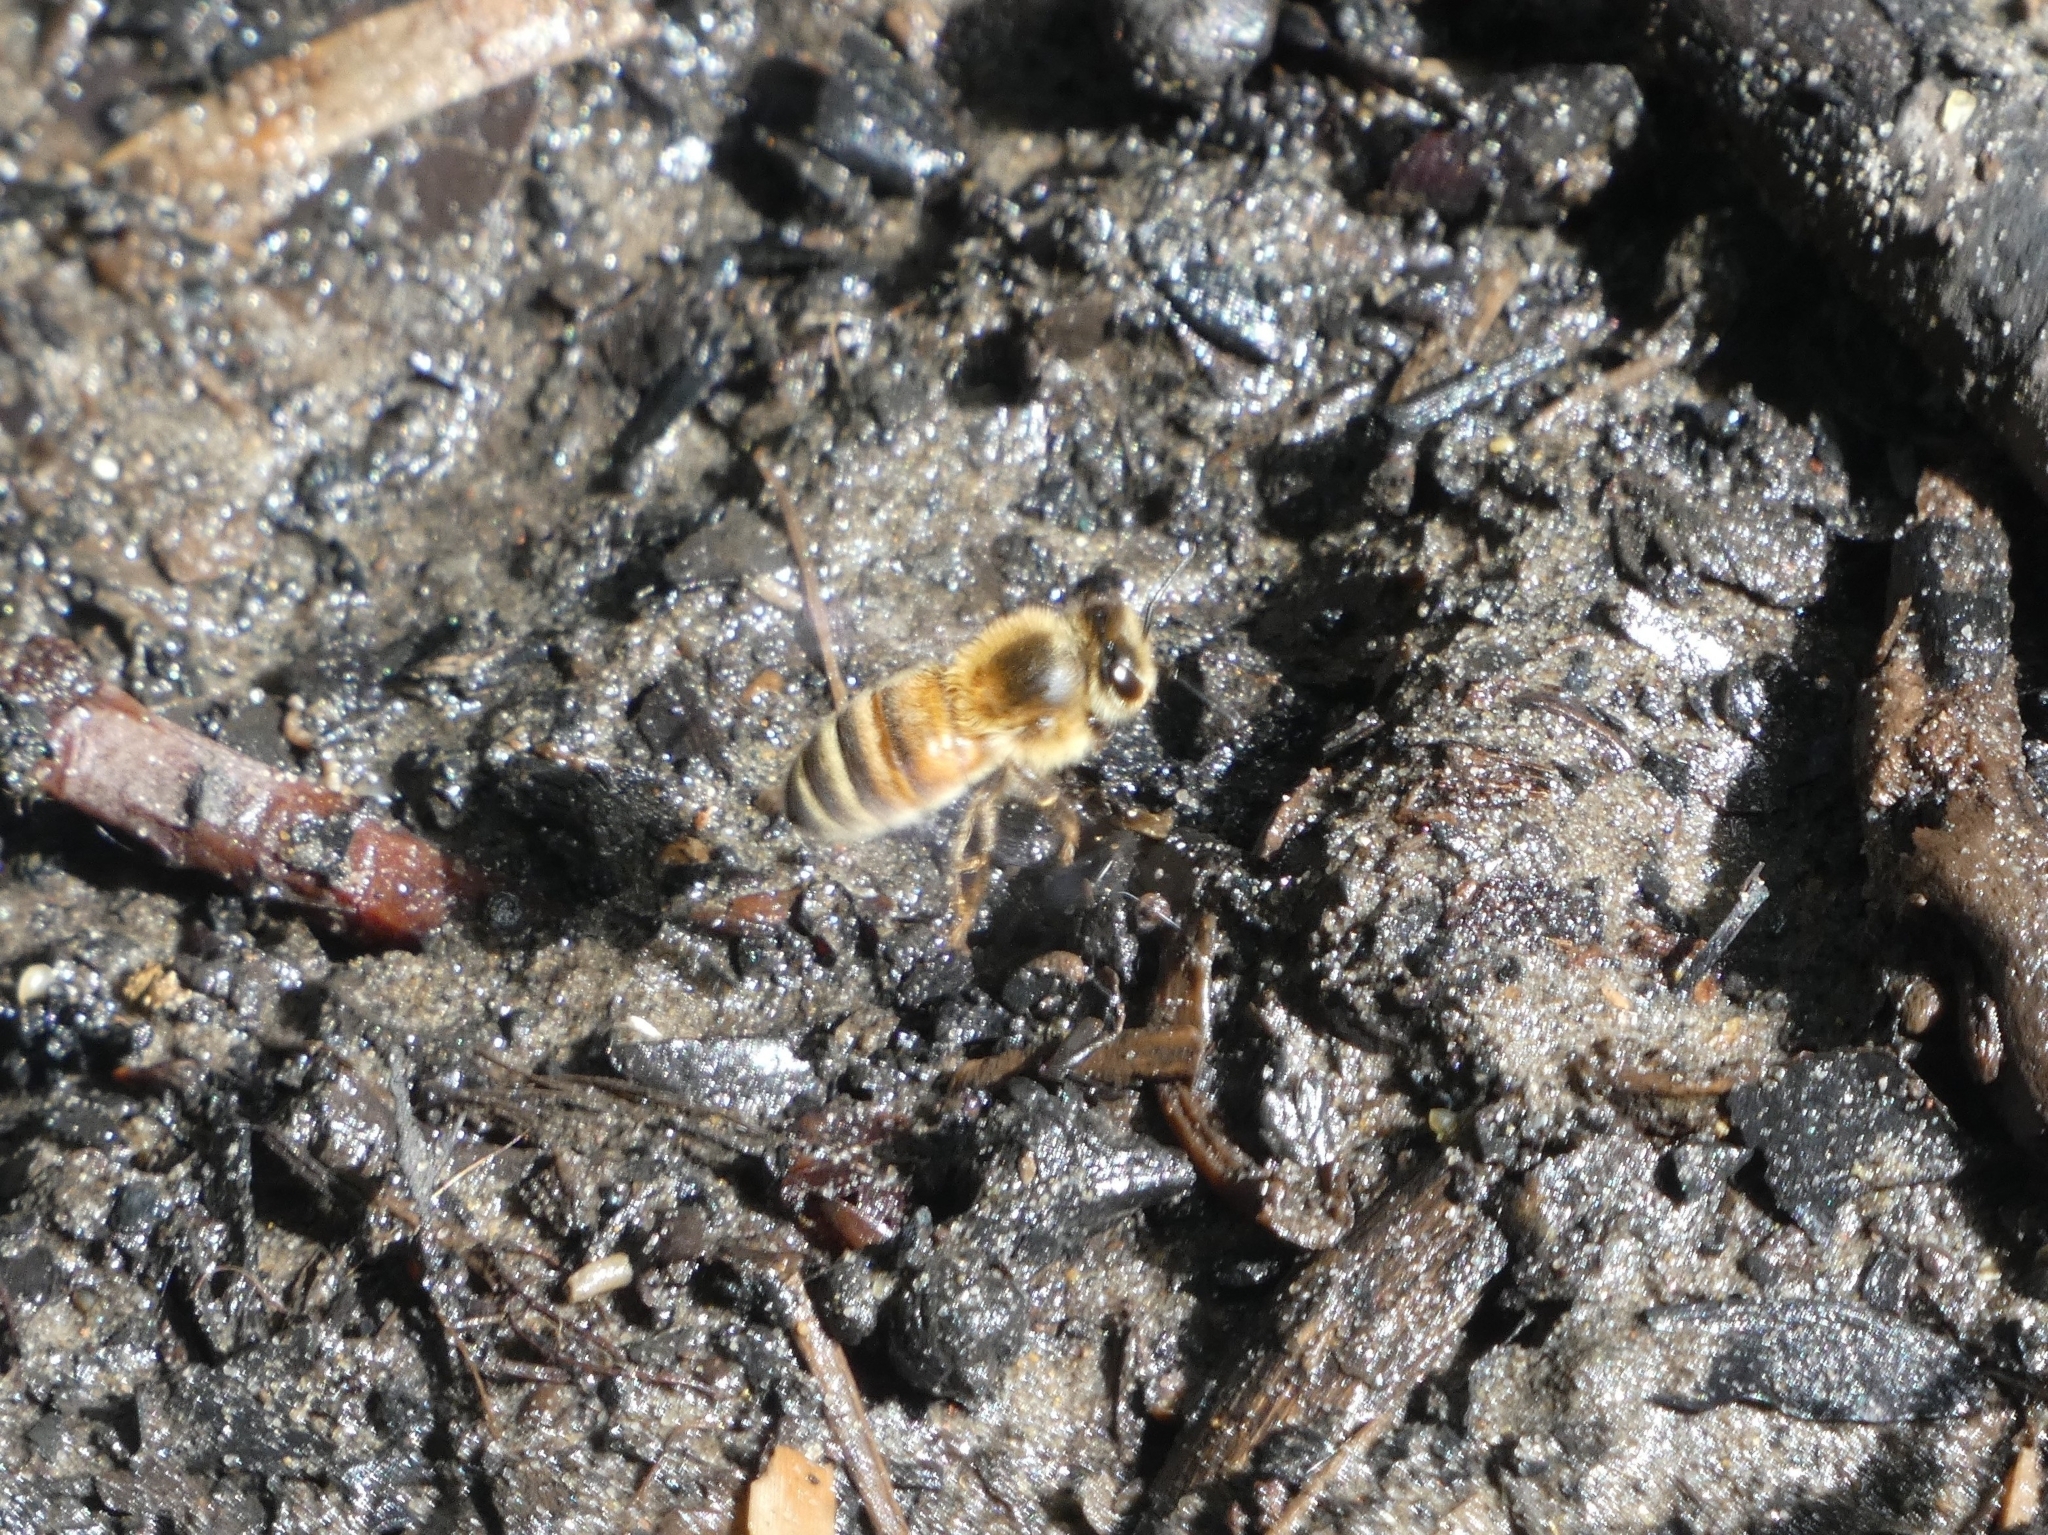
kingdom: Animalia
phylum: Arthropoda
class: Insecta
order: Hymenoptera
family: Apidae
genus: Apis
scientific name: Apis mellifera
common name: Honey bee
